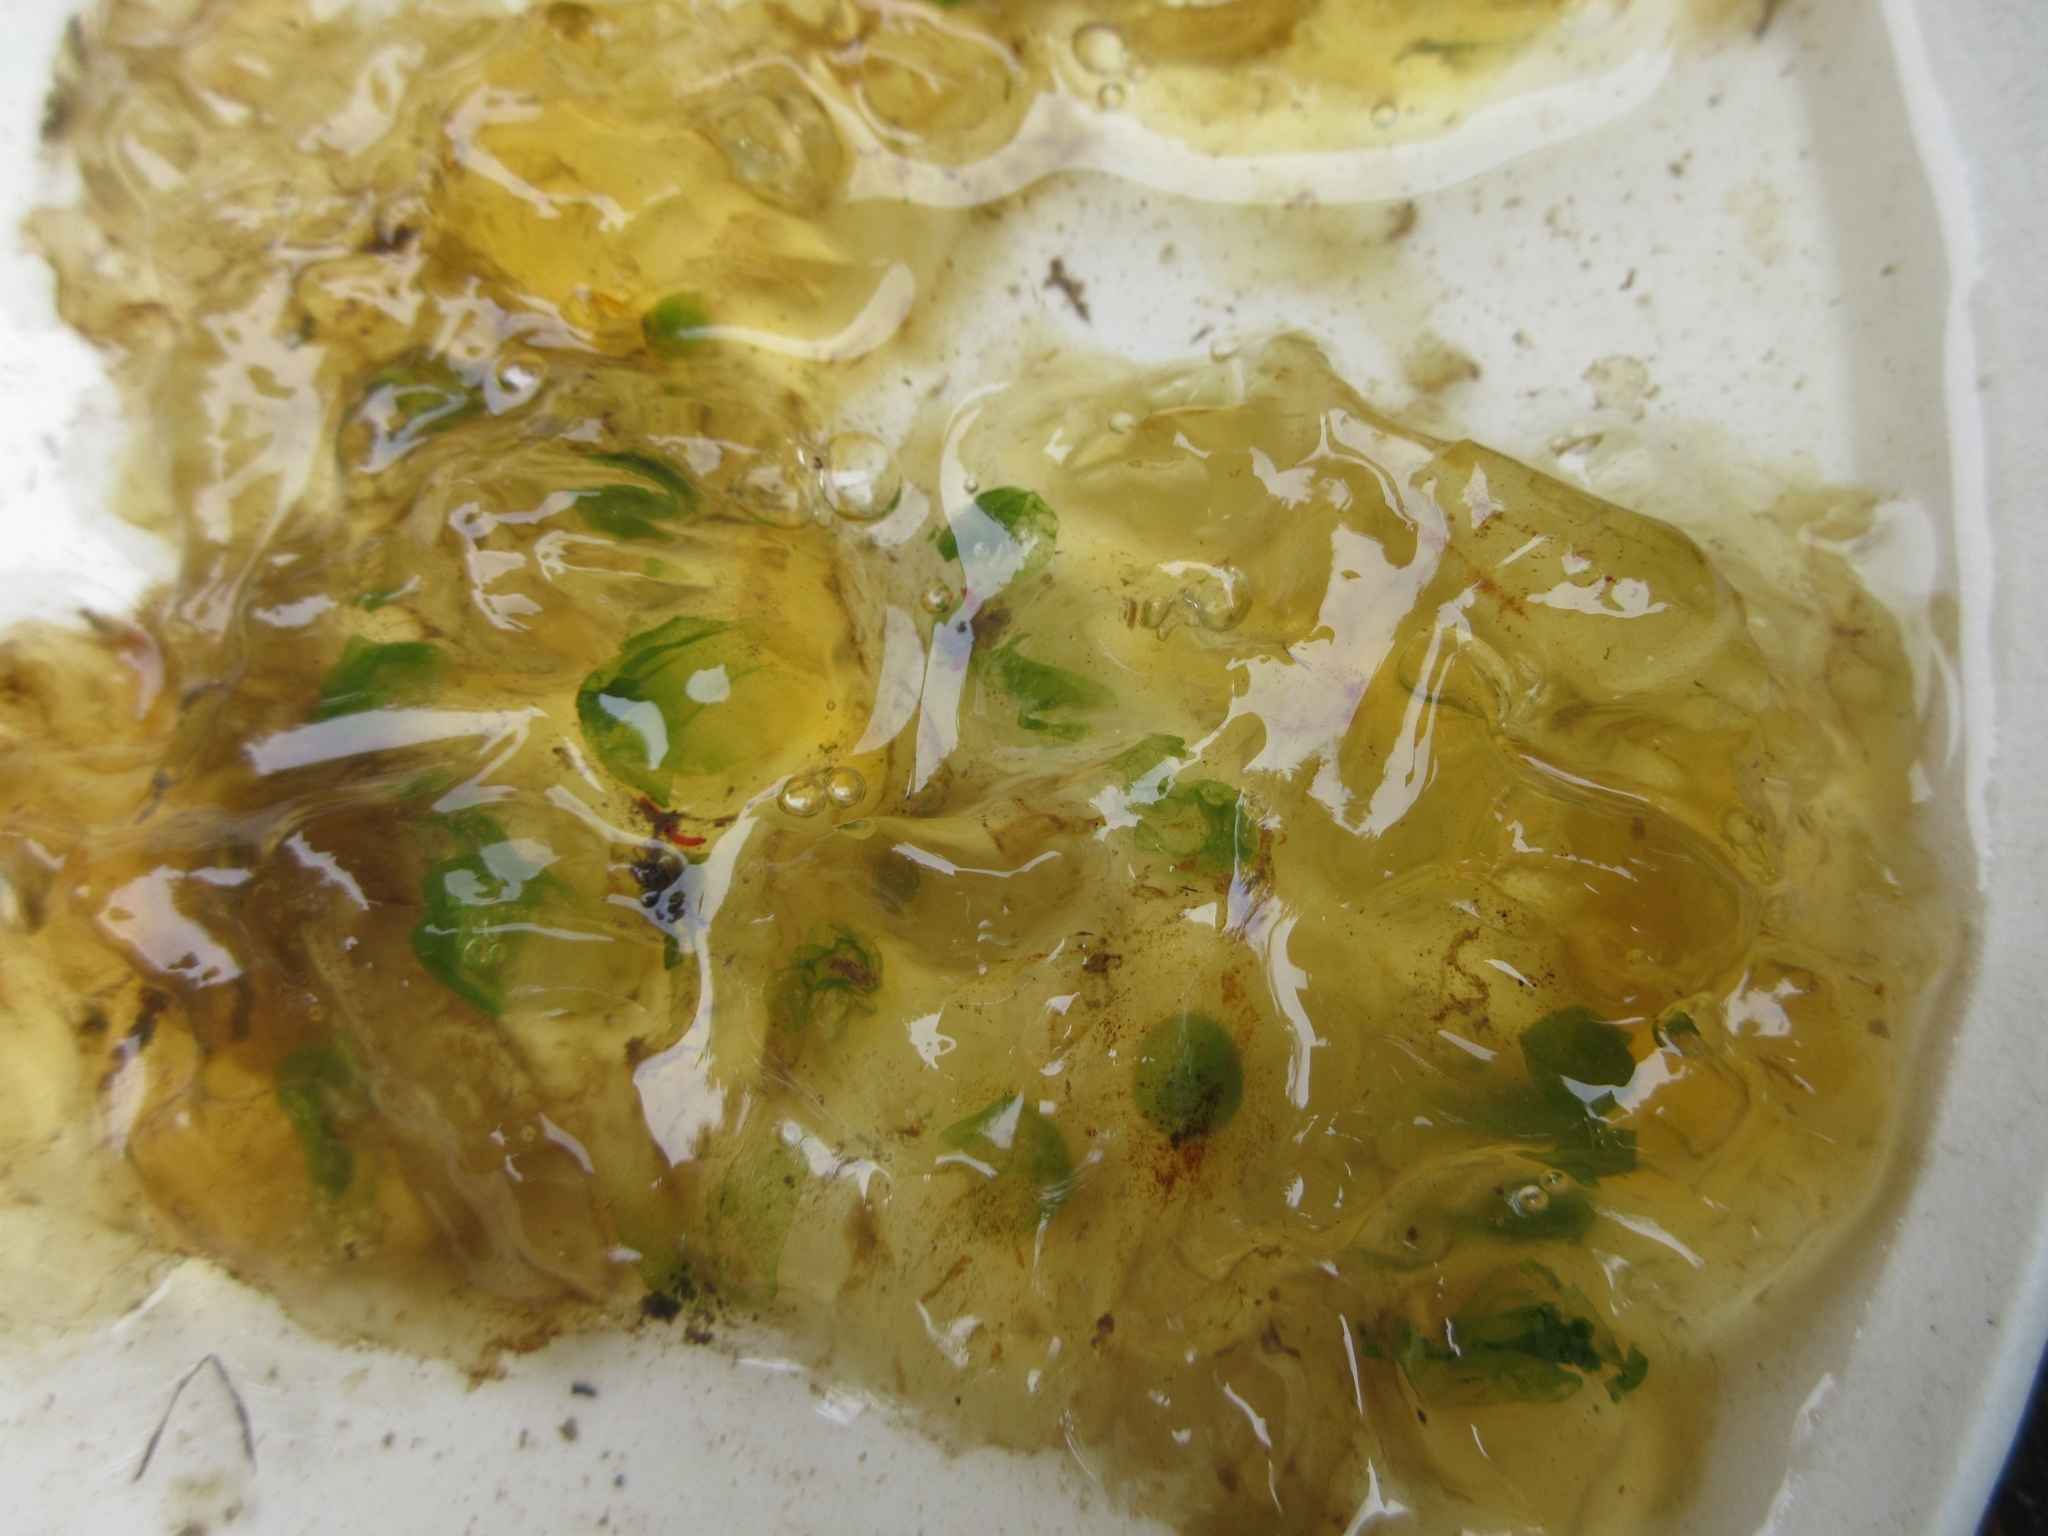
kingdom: Animalia
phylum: Chordata
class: Amphibia
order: Caudata
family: Ambystomatidae
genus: Ambystoma
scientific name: Ambystoma gracile
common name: Northwestern salamander
